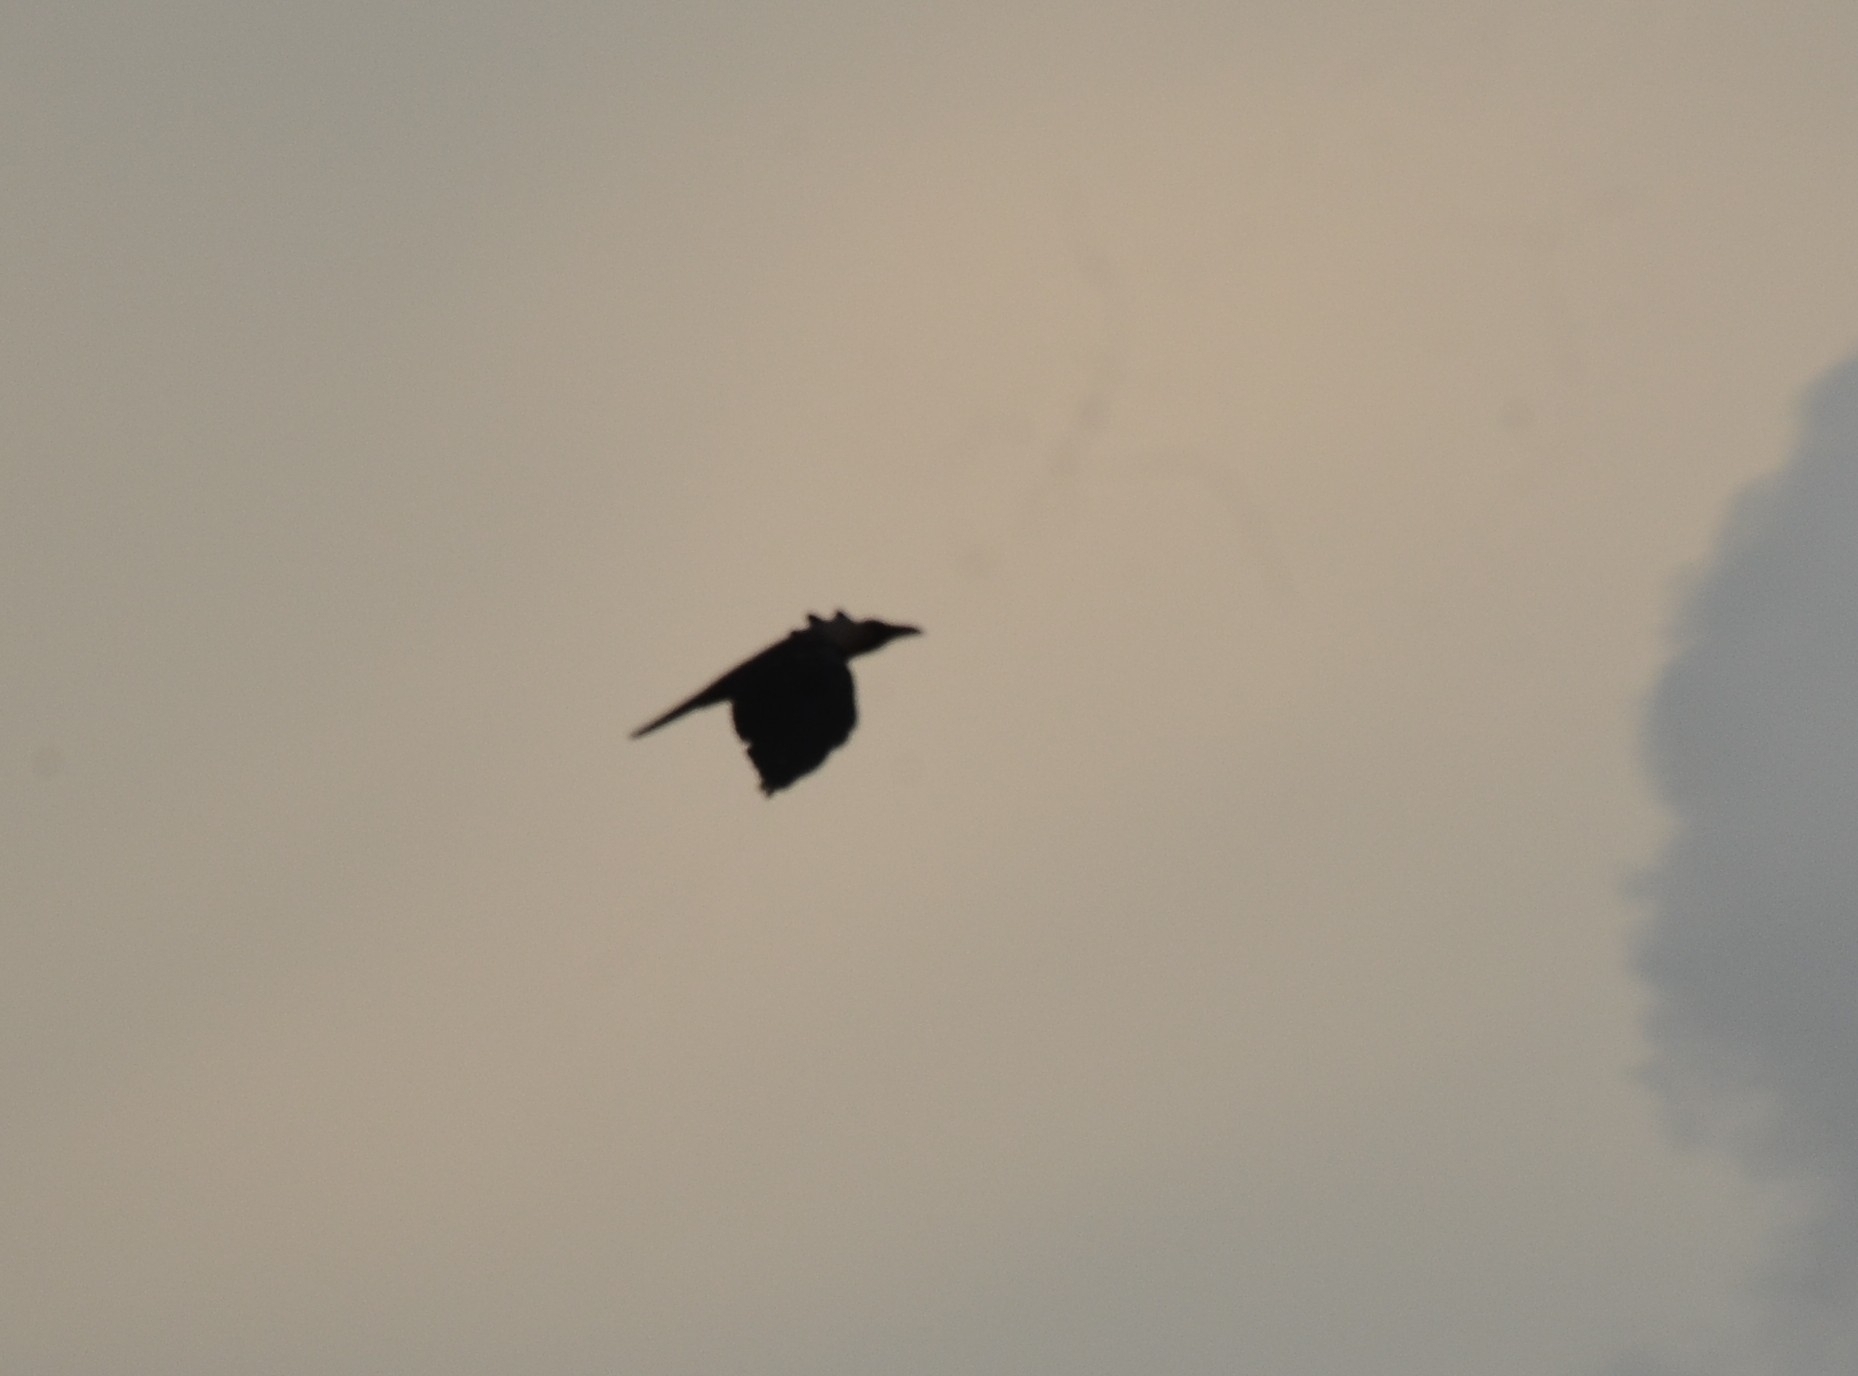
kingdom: Animalia
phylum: Chordata
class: Aves
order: Passeriformes
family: Corvidae
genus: Corvus
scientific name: Corvus splendens
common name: House crow
